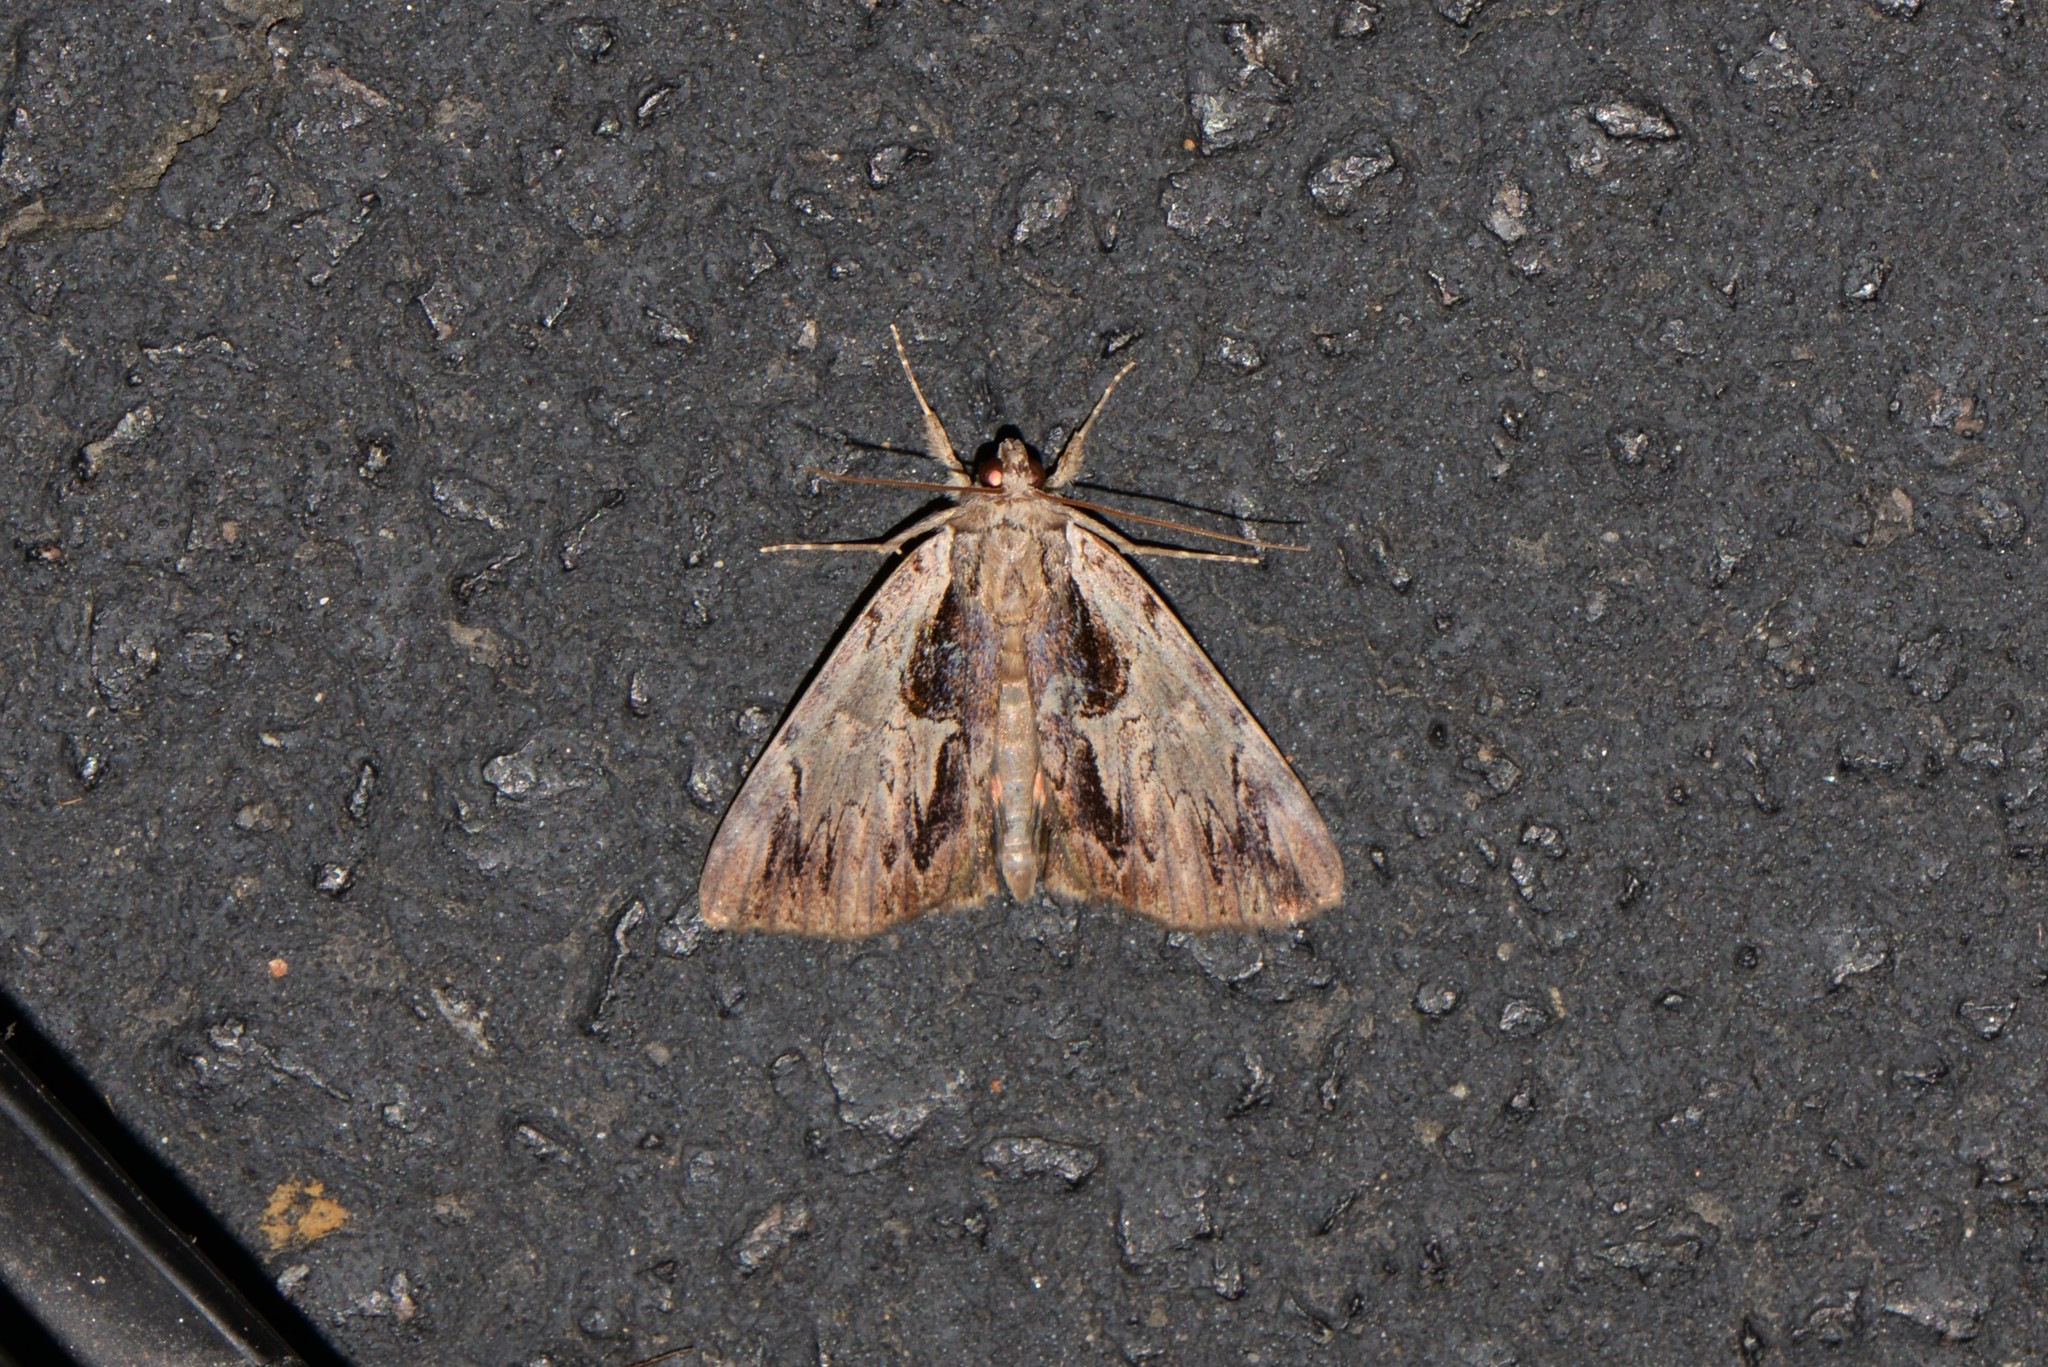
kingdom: Animalia
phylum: Arthropoda
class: Insecta
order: Lepidoptera
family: Erebidae
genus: Catocala
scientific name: Catocala ultronia
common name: Ultronia underwing
